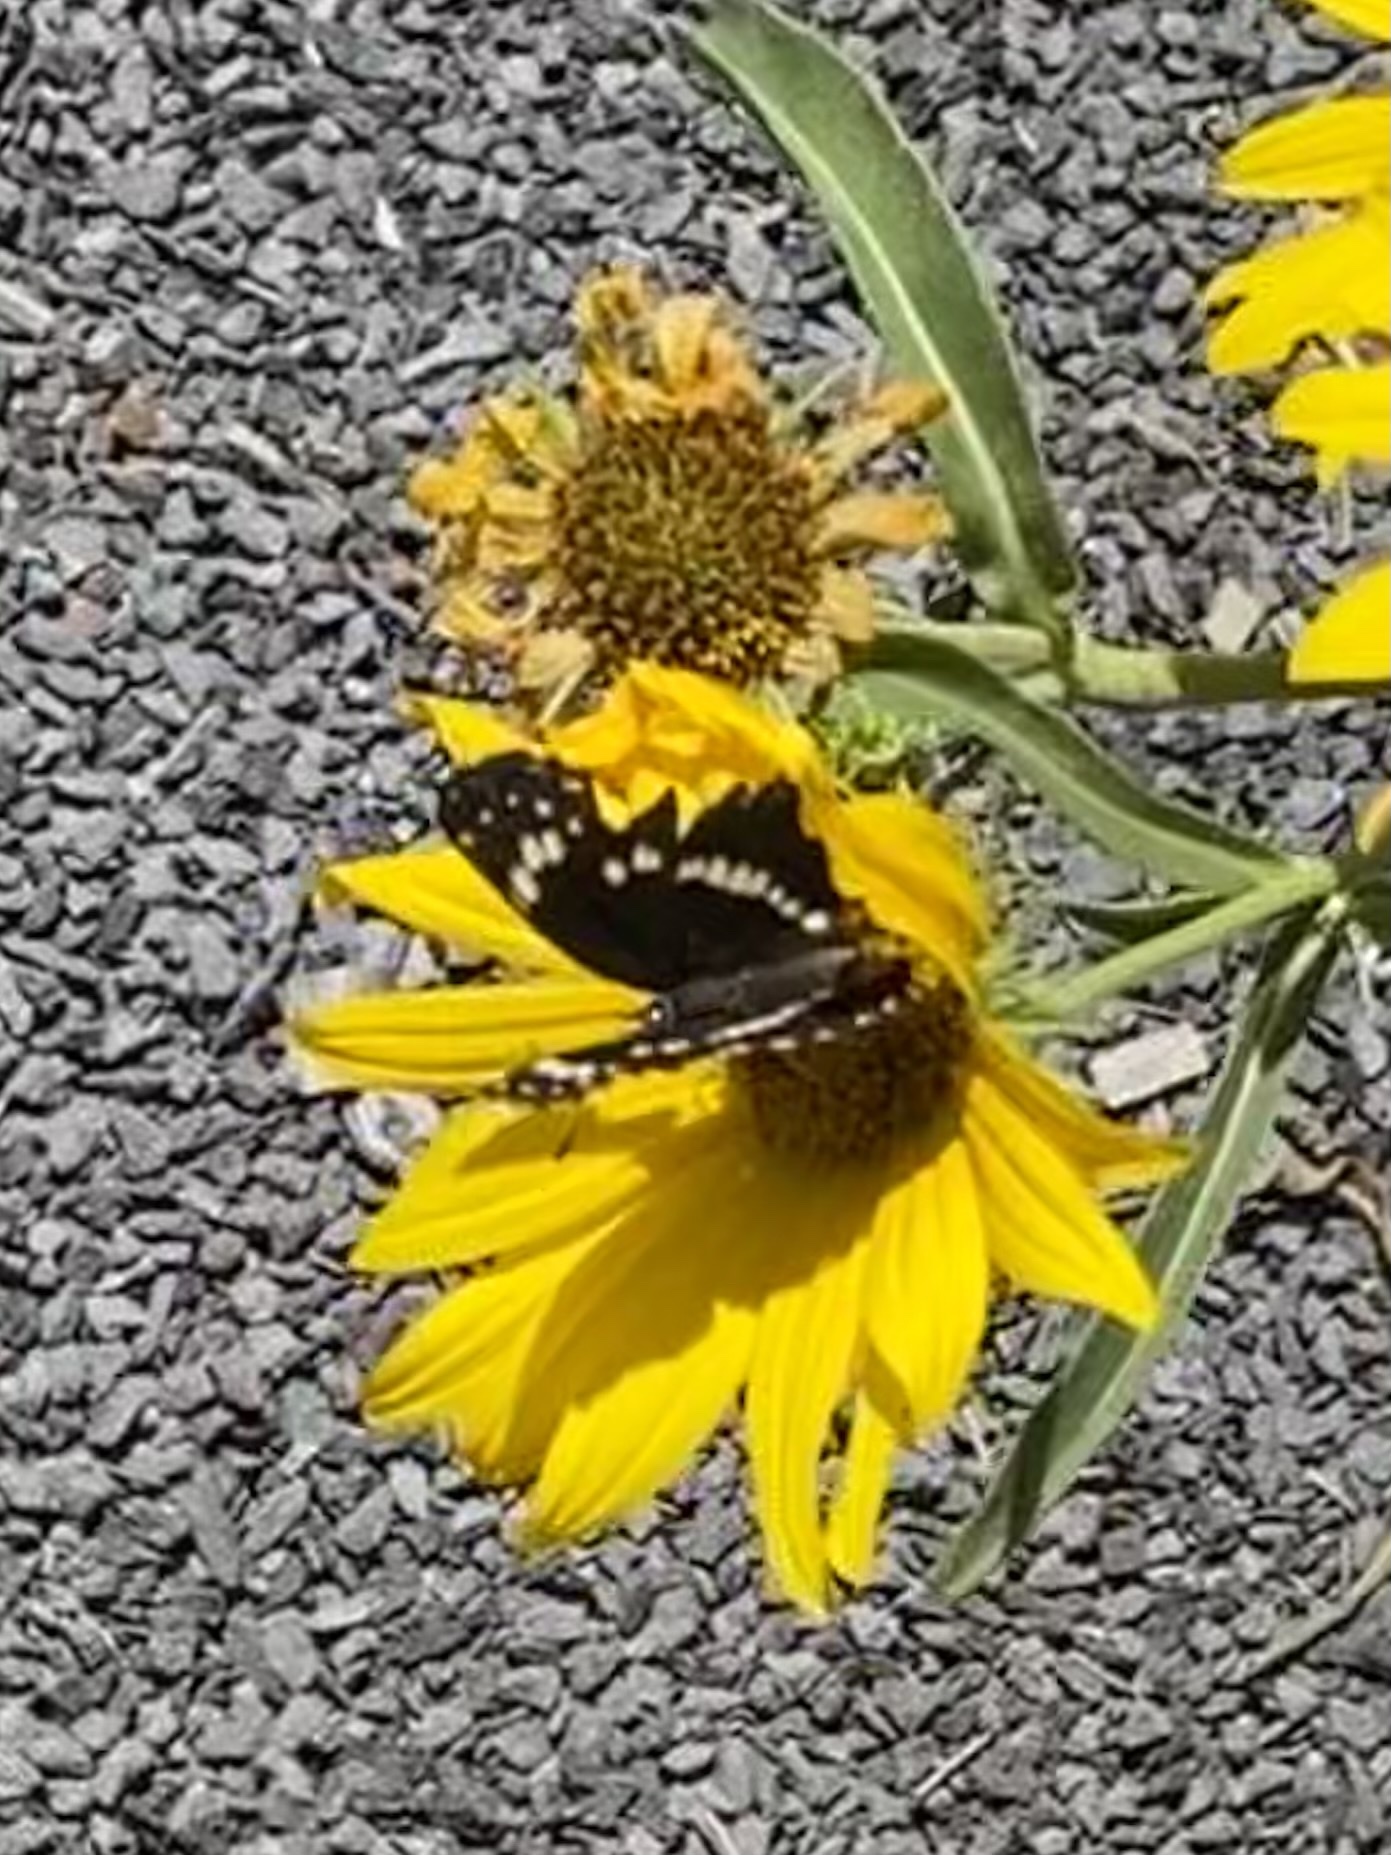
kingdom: Animalia
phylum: Arthropoda
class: Insecta
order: Lepidoptera
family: Nymphalidae
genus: Chlosyne
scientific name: Chlosyne lacinia
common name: Bordered patch
